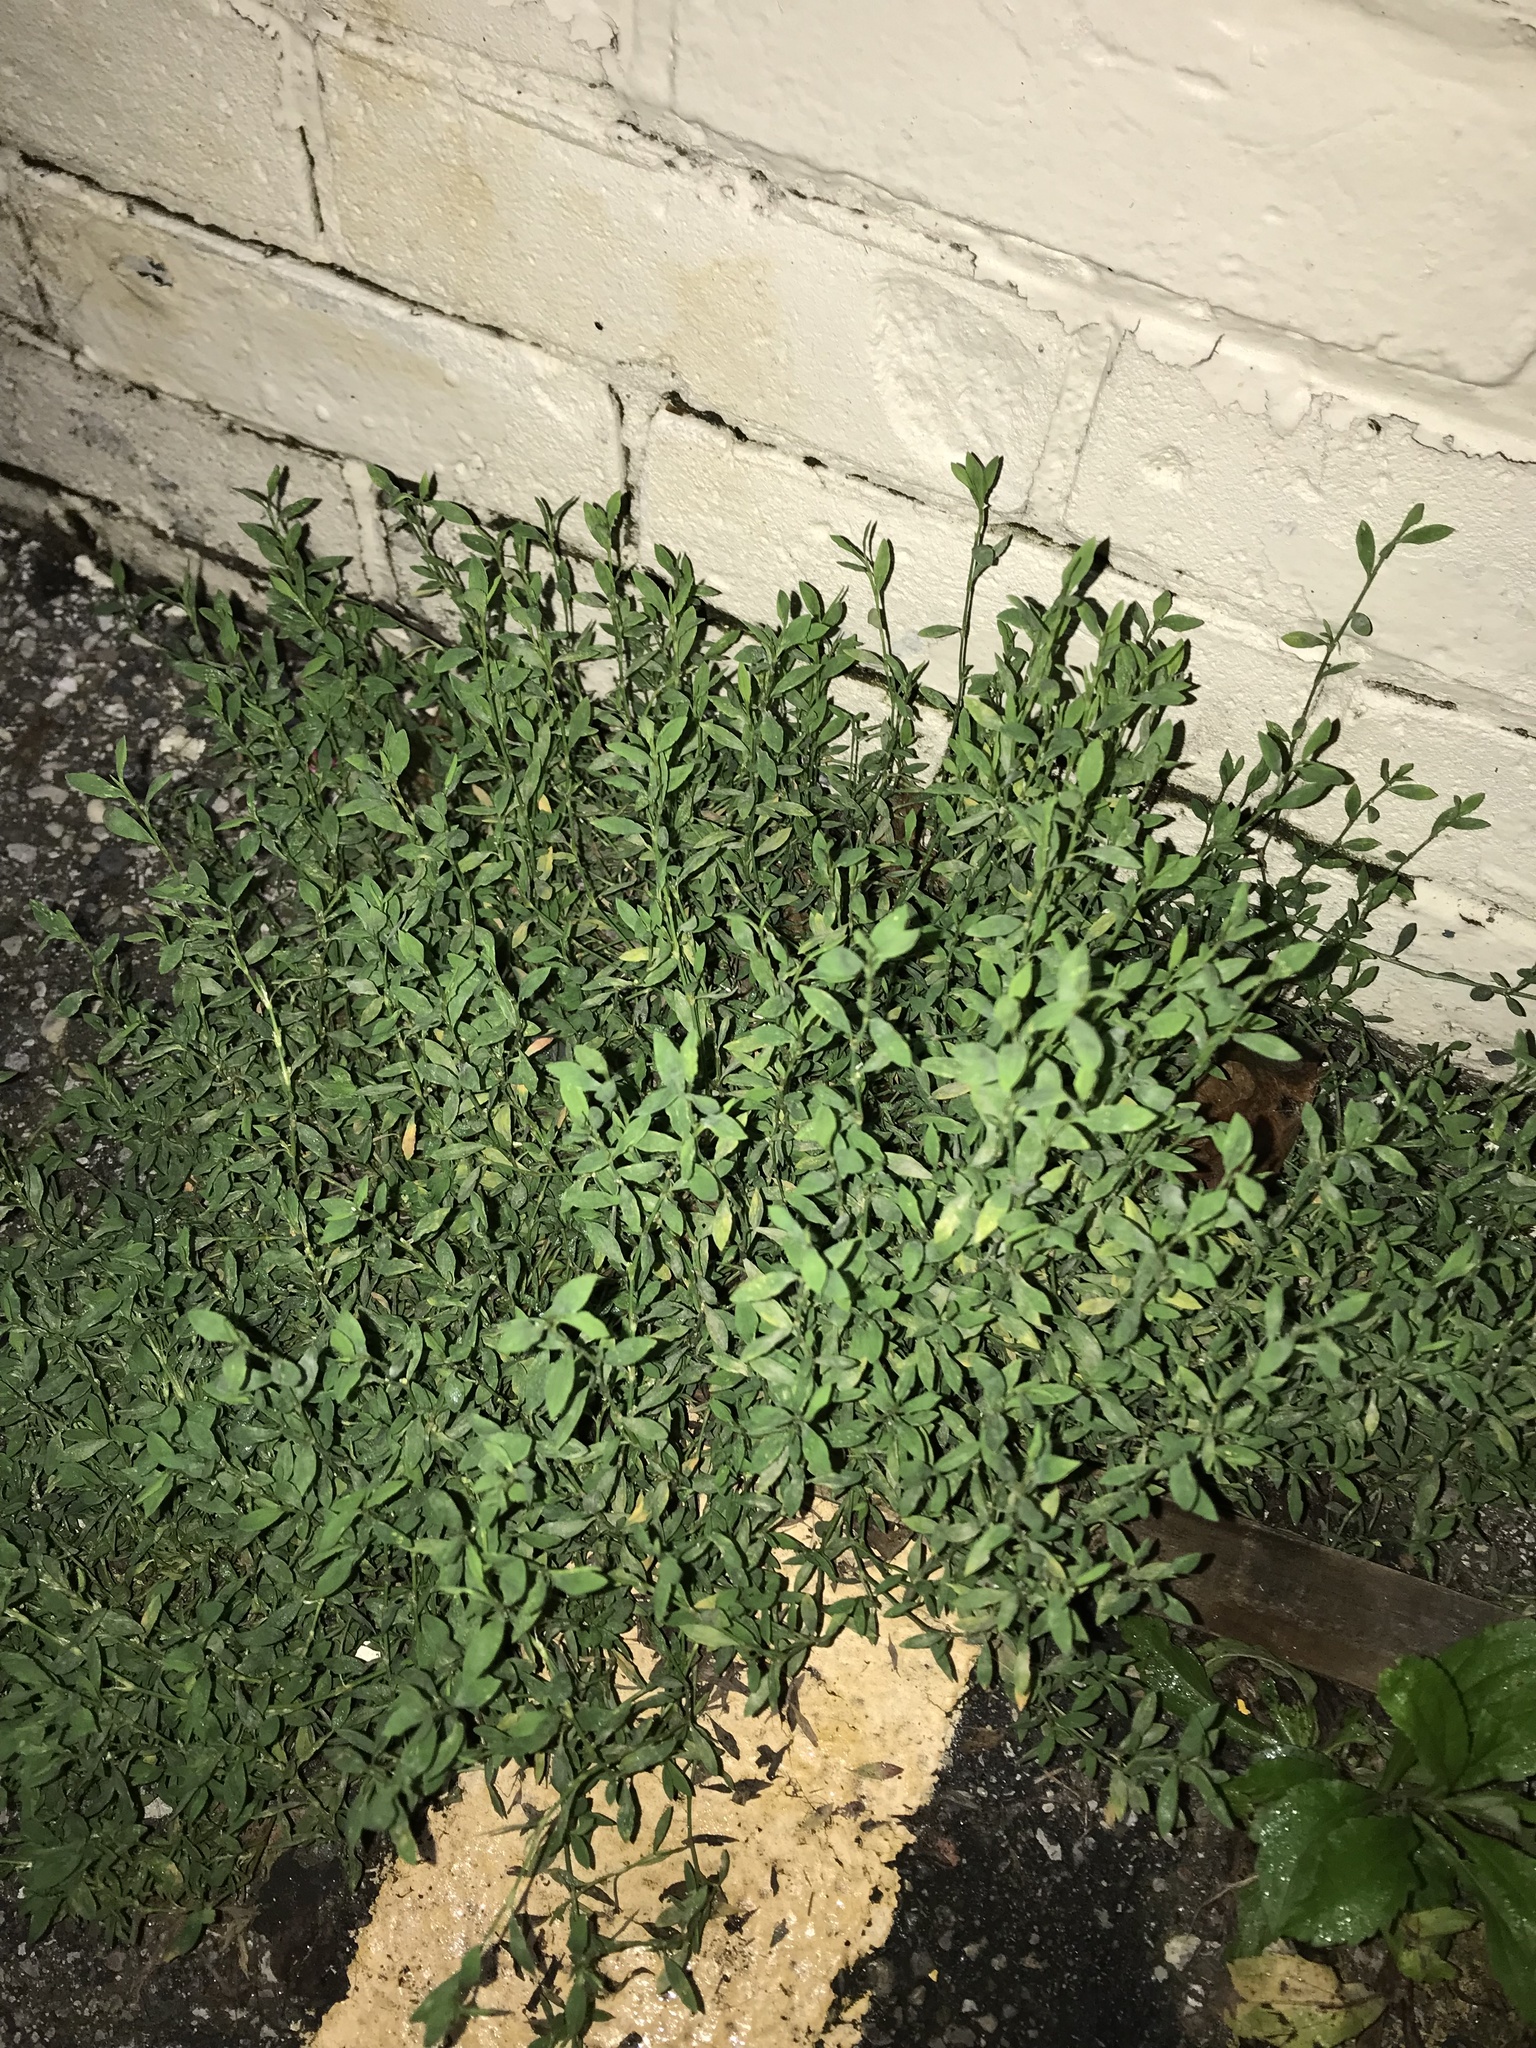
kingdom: Plantae
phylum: Tracheophyta
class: Magnoliopsida
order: Caryophyllales
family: Polygonaceae
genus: Polygonum
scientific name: Polygonum aviculare
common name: Prostrate knotweed
